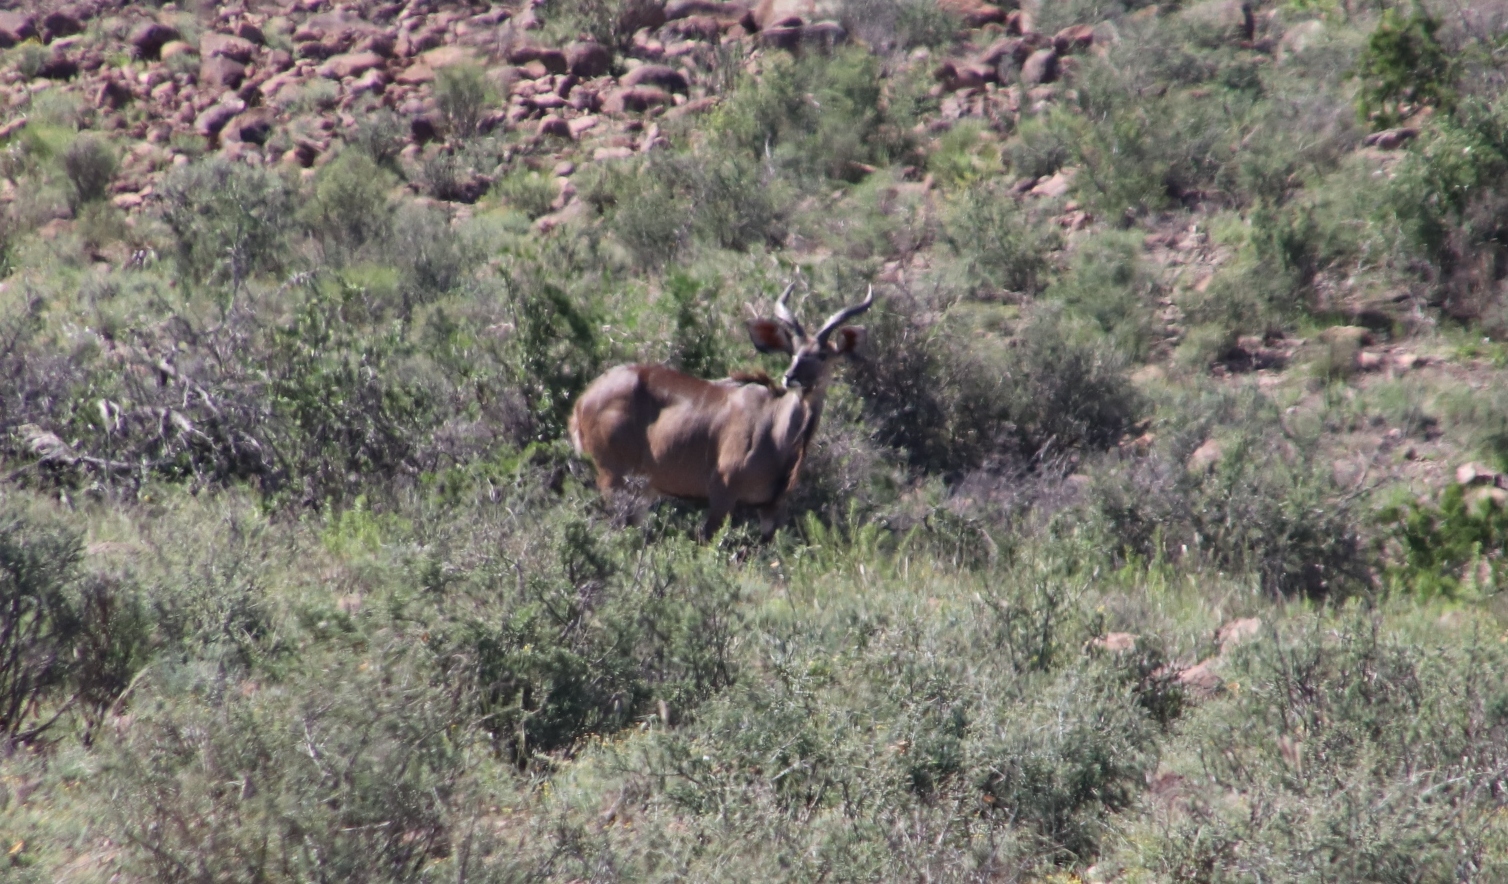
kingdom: Animalia
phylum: Chordata
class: Mammalia
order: Artiodactyla
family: Bovidae
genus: Tragelaphus
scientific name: Tragelaphus strepsiceros
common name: Greater kudu
